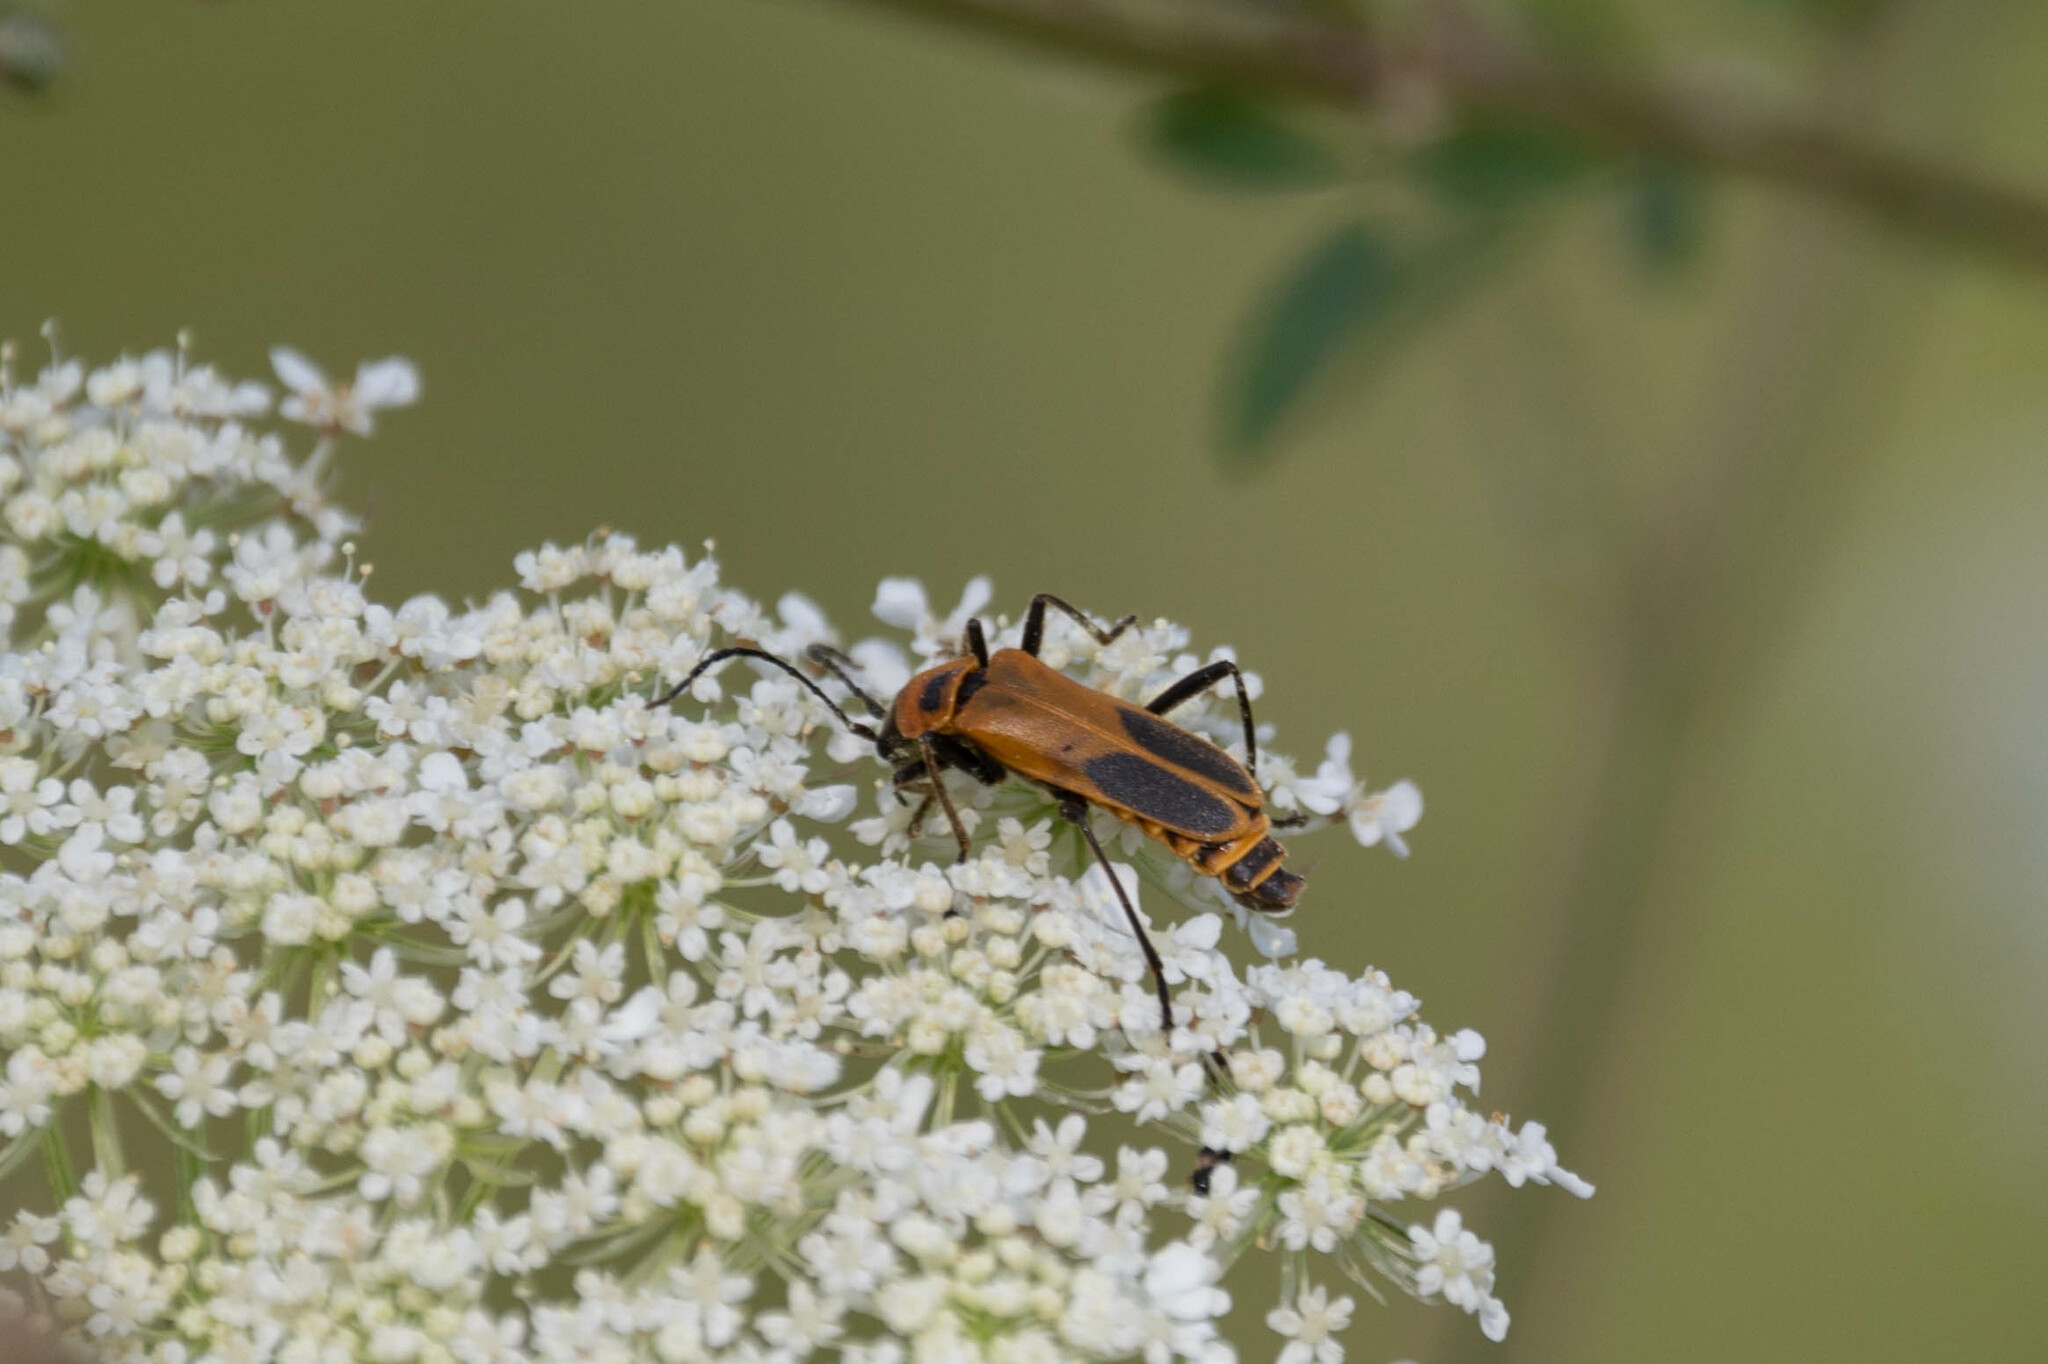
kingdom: Animalia
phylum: Arthropoda
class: Insecta
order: Coleoptera
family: Cantharidae
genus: Chauliognathus
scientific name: Chauliognathus pensylvanicus
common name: Goldenrod soldier beetle
